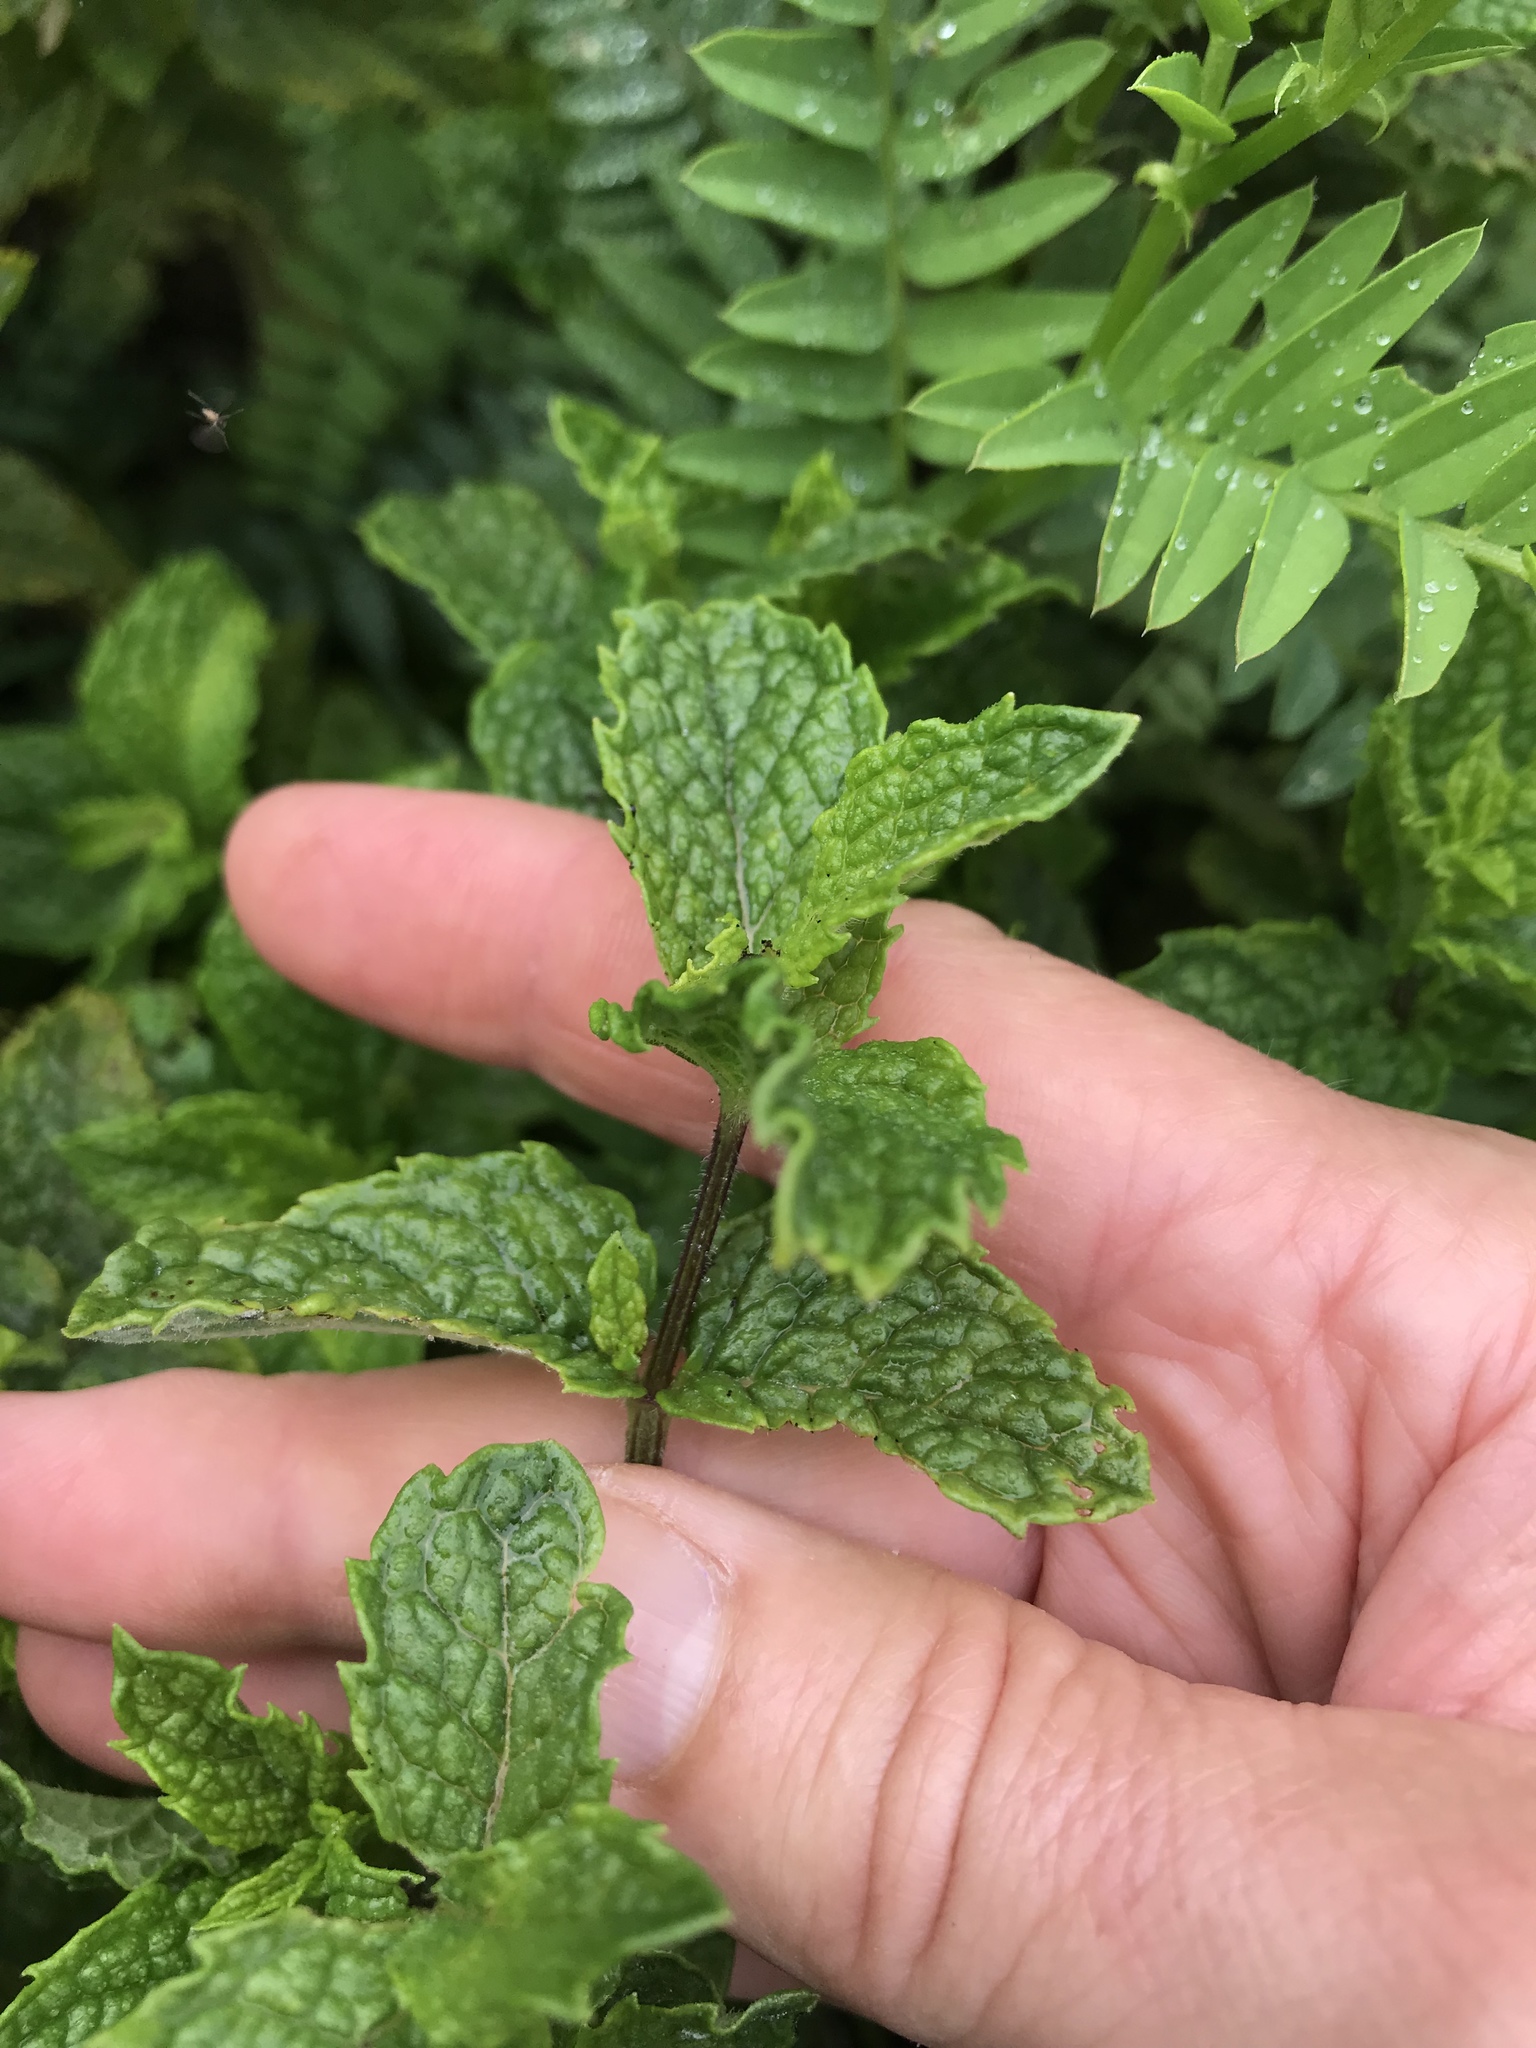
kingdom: Plantae
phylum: Tracheophyta
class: Magnoliopsida
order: Lamiales
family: Lamiaceae
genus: Mentha
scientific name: Mentha spicata
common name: Spearmint
